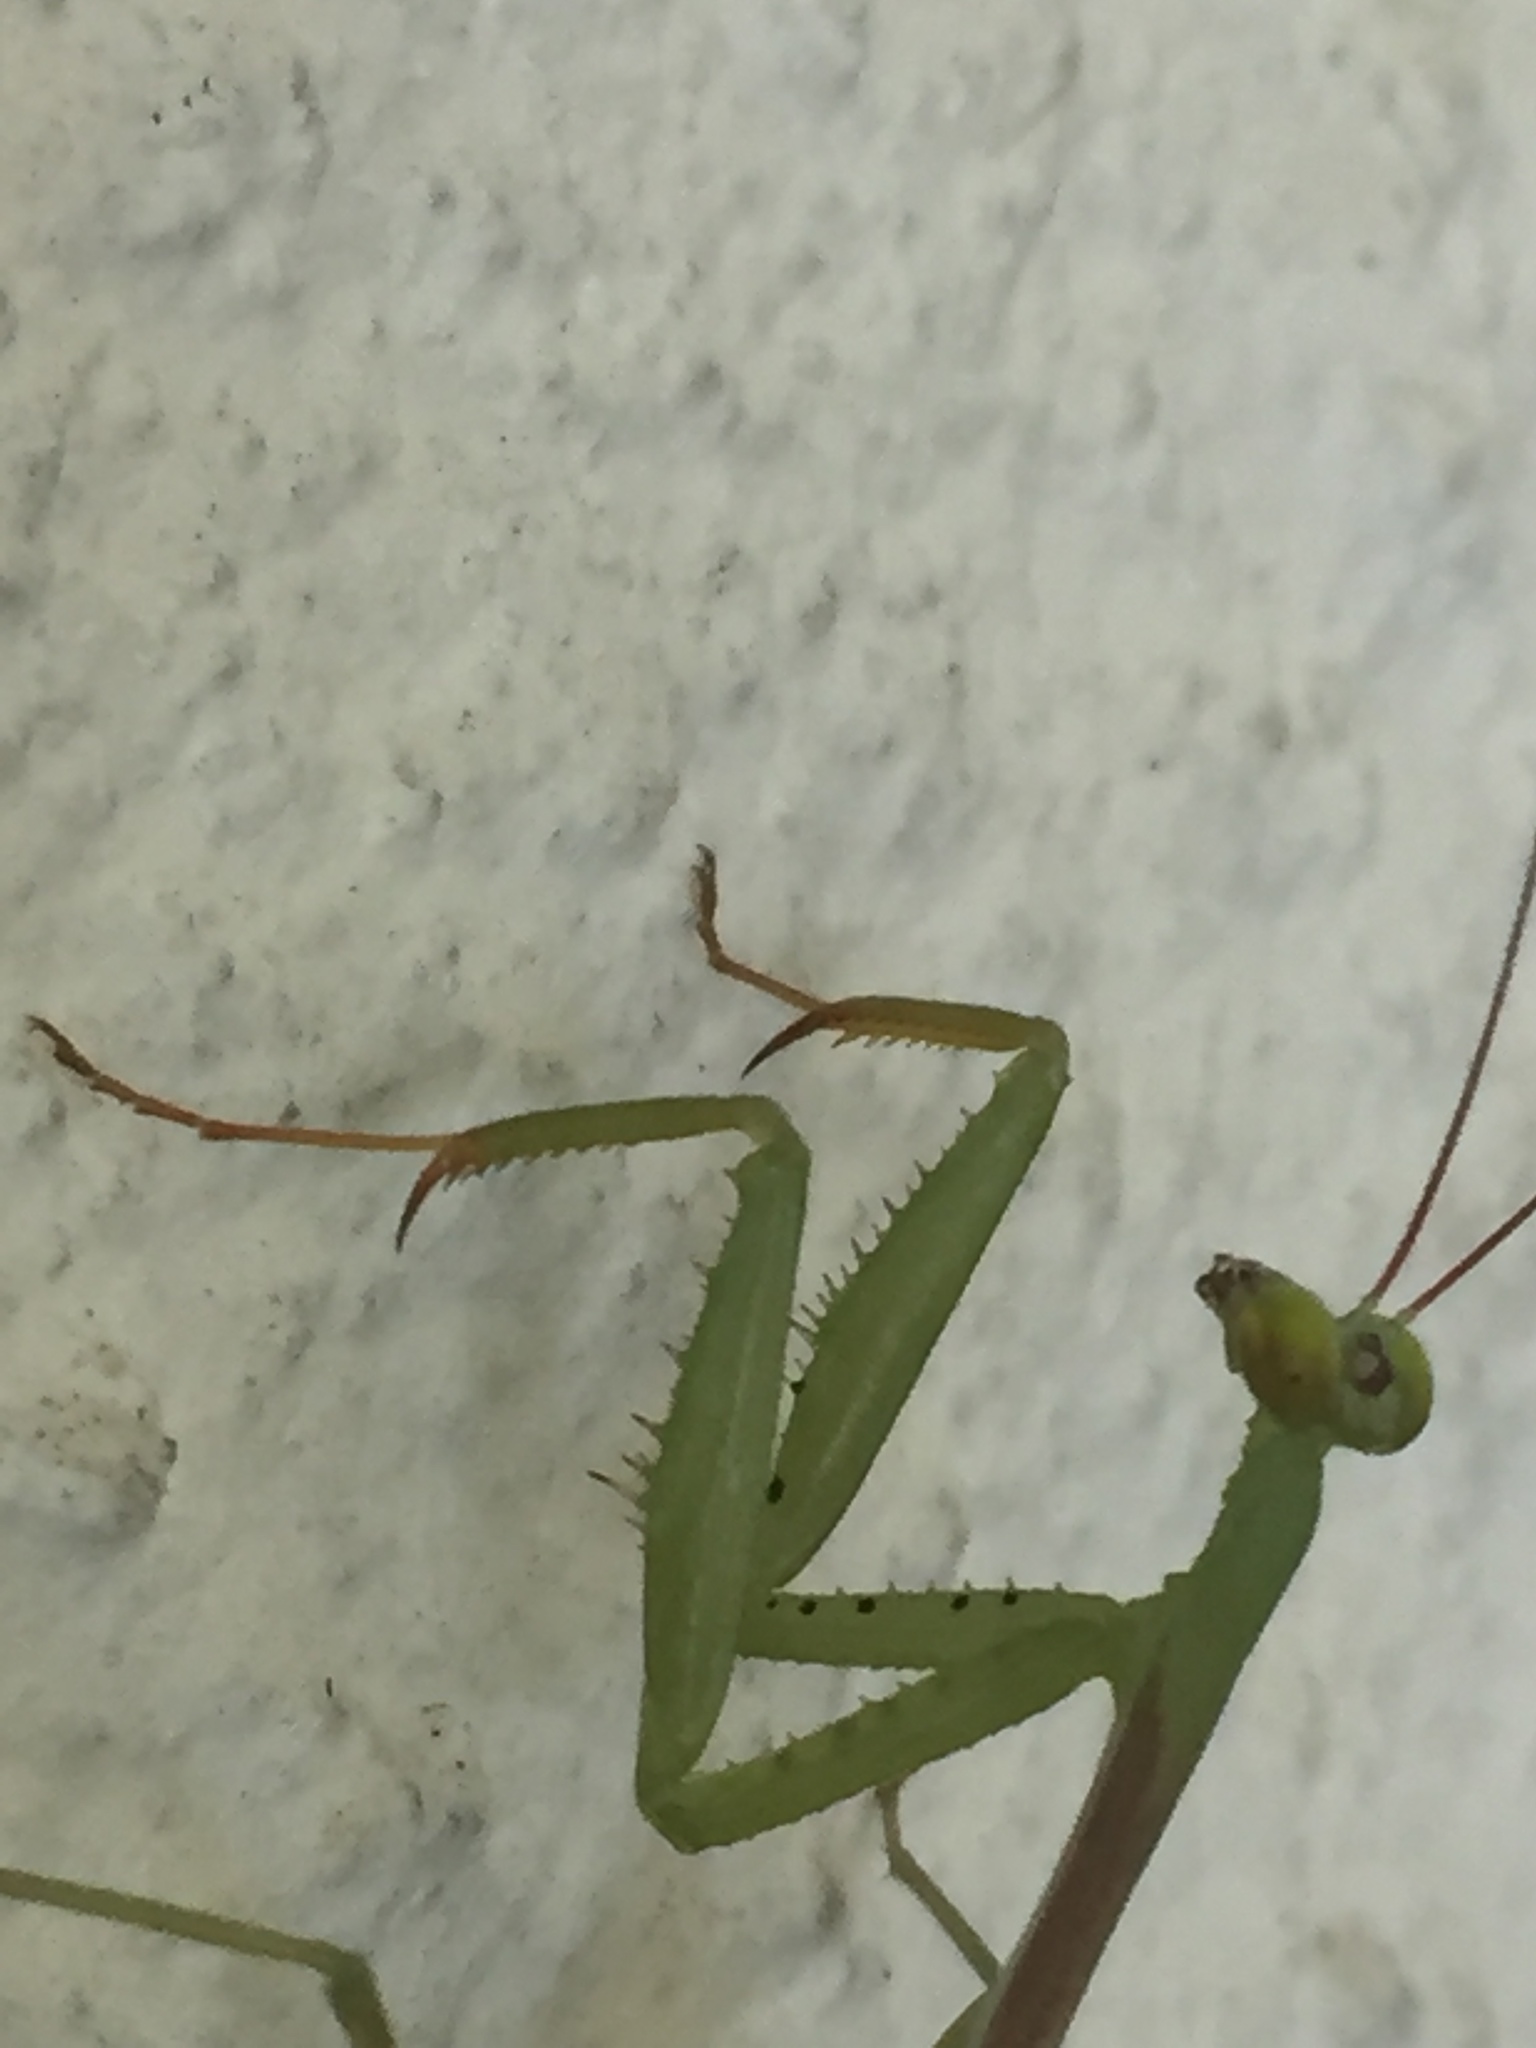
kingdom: Animalia
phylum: Arthropoda
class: Insecta
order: Mantodea
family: Miomantidae
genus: Miomantis
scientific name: Miomantis caffra
